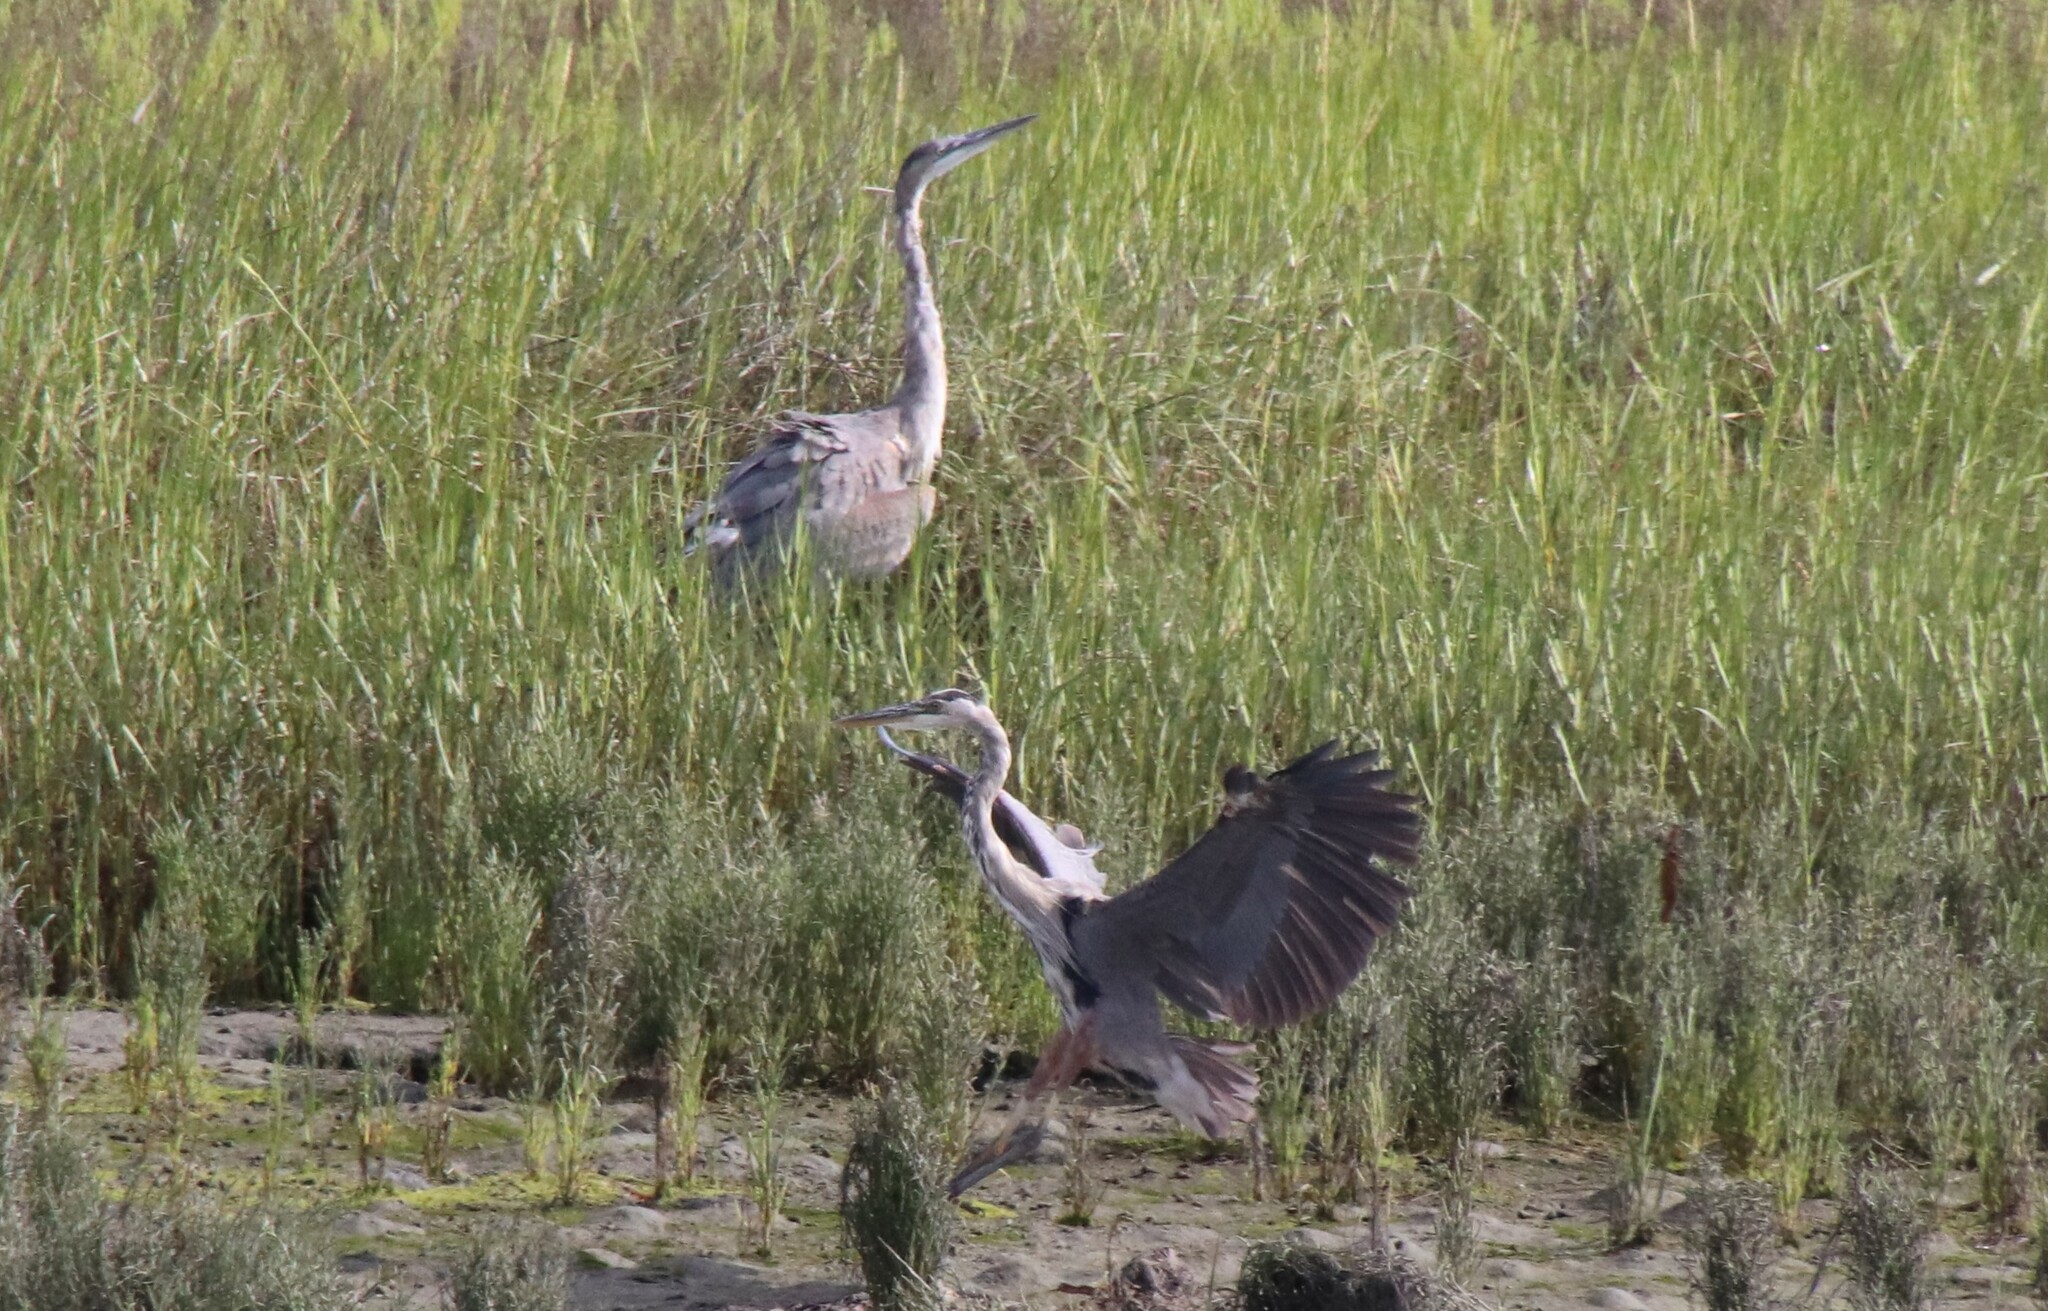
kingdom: Animalia
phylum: Chordata
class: Aves
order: Pelecaniformes
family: Ardeidae
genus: Ardea
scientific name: Ardea herodias
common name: Great blue heron
